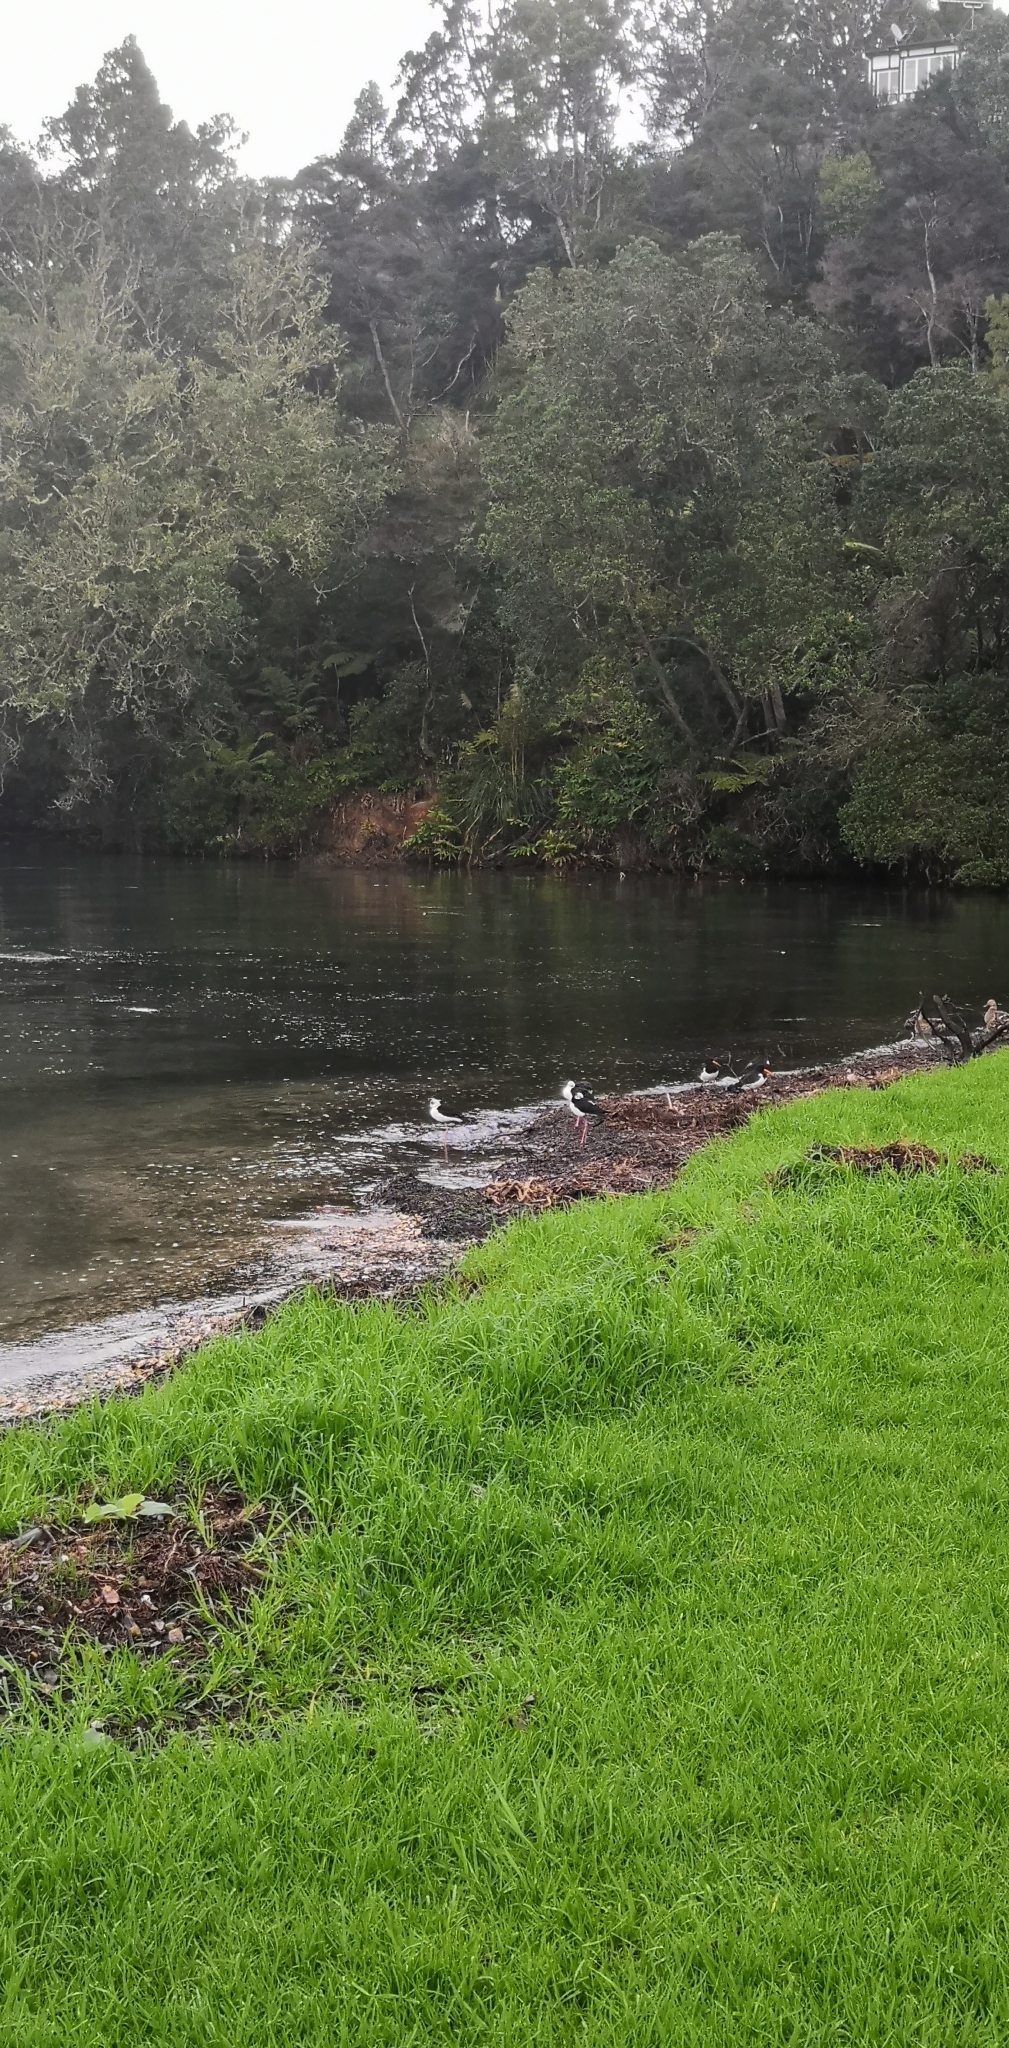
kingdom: Animalia
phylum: Chordata
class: Aves
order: Charadriiformes
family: Recurvirostridae
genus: Himantopus
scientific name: Himantopus leucocephalus
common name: White-headed stilt
